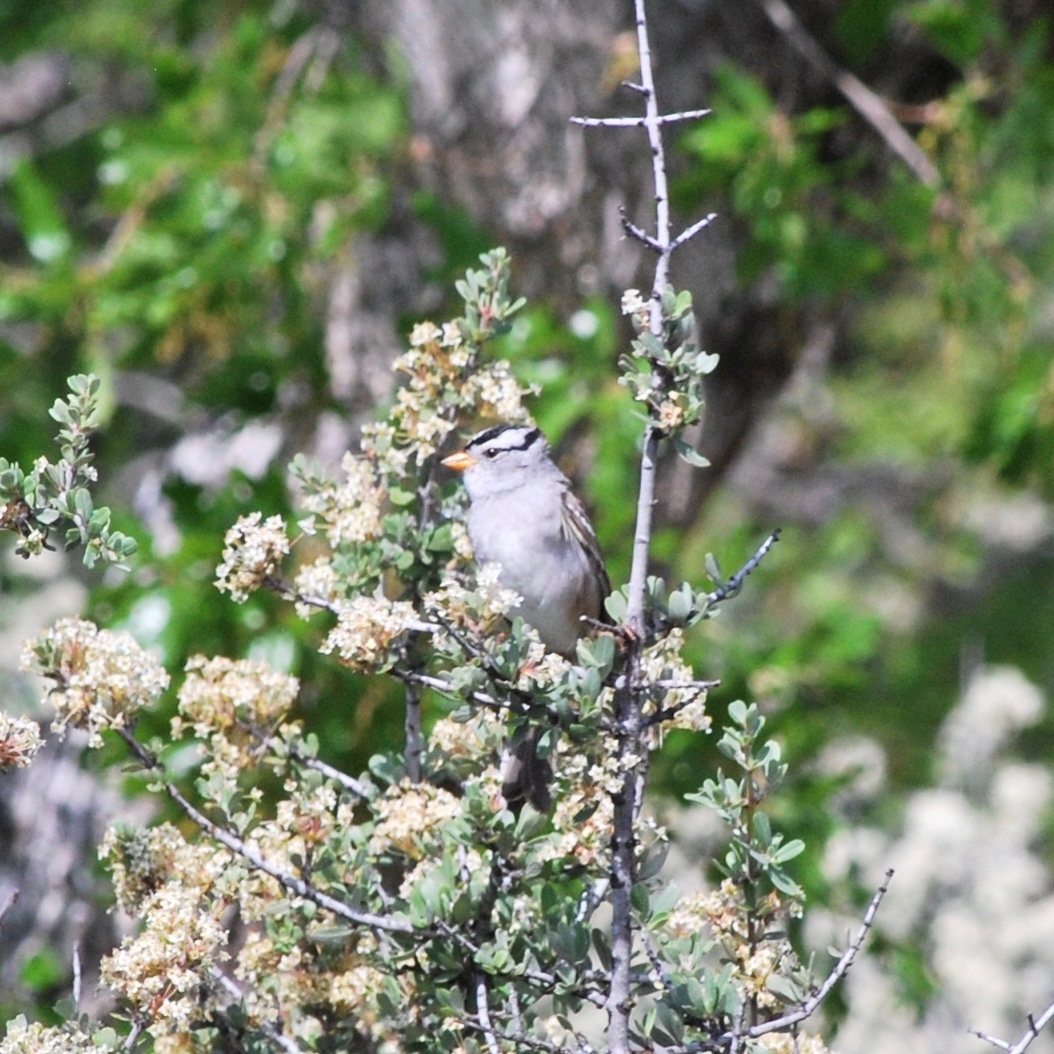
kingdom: Animalia
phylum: Chordata
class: Aves
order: Passeriformes
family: Passerellidae
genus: Zonotrichia
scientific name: Zonotrichia leucophrys
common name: White-crowned sparrow
